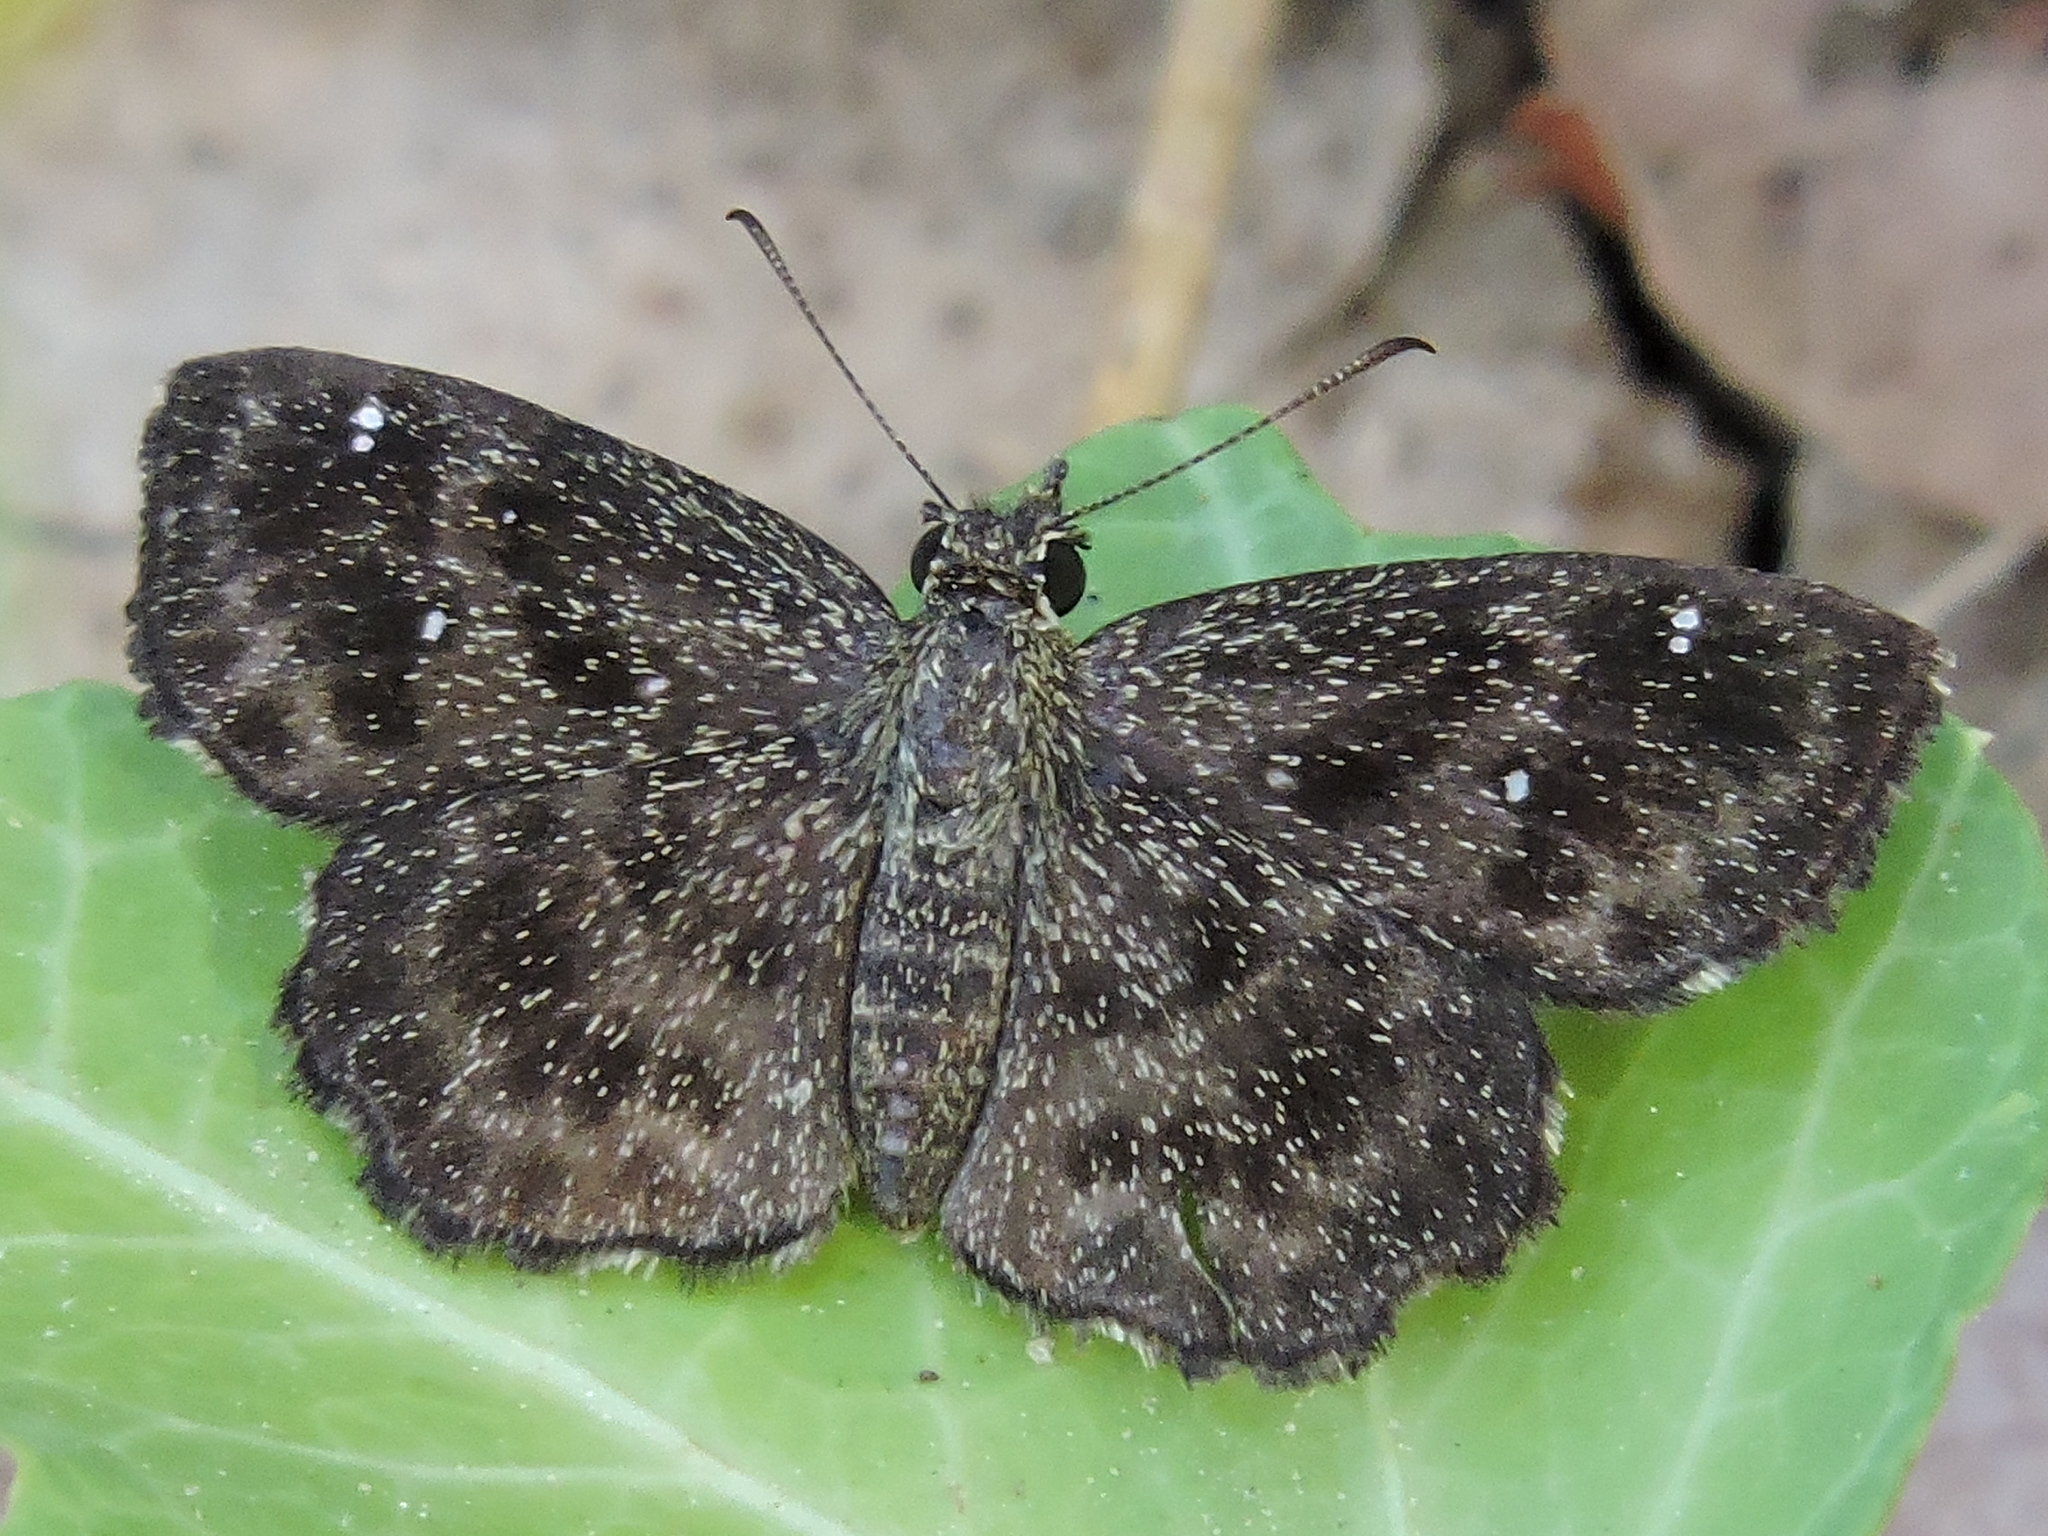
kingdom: Animalia
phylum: Arthropoda
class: Insecta
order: Lepidoptera
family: Hesperiidae
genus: Staphylus
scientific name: Staphylus mazans
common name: Mazans scallopwing
